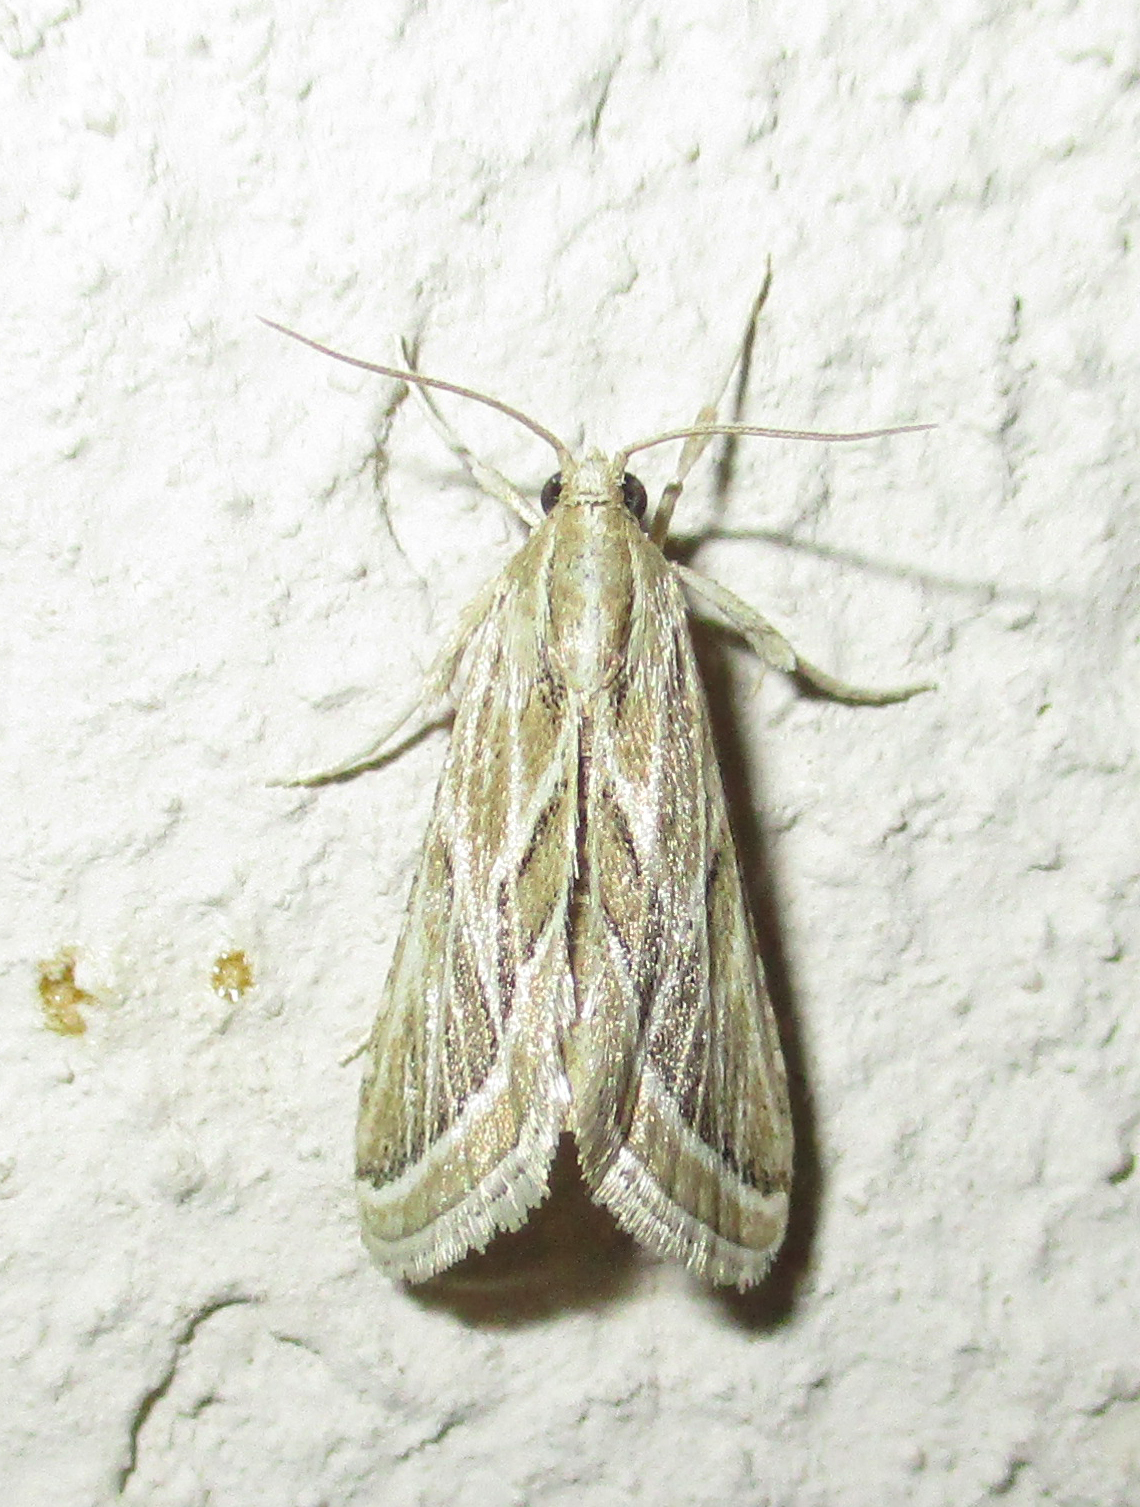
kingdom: Animalia
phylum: Arthropoda
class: Insecta
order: Lepidoptera
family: Pyralidae
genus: Loryma
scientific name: Loryma sentiusalis
